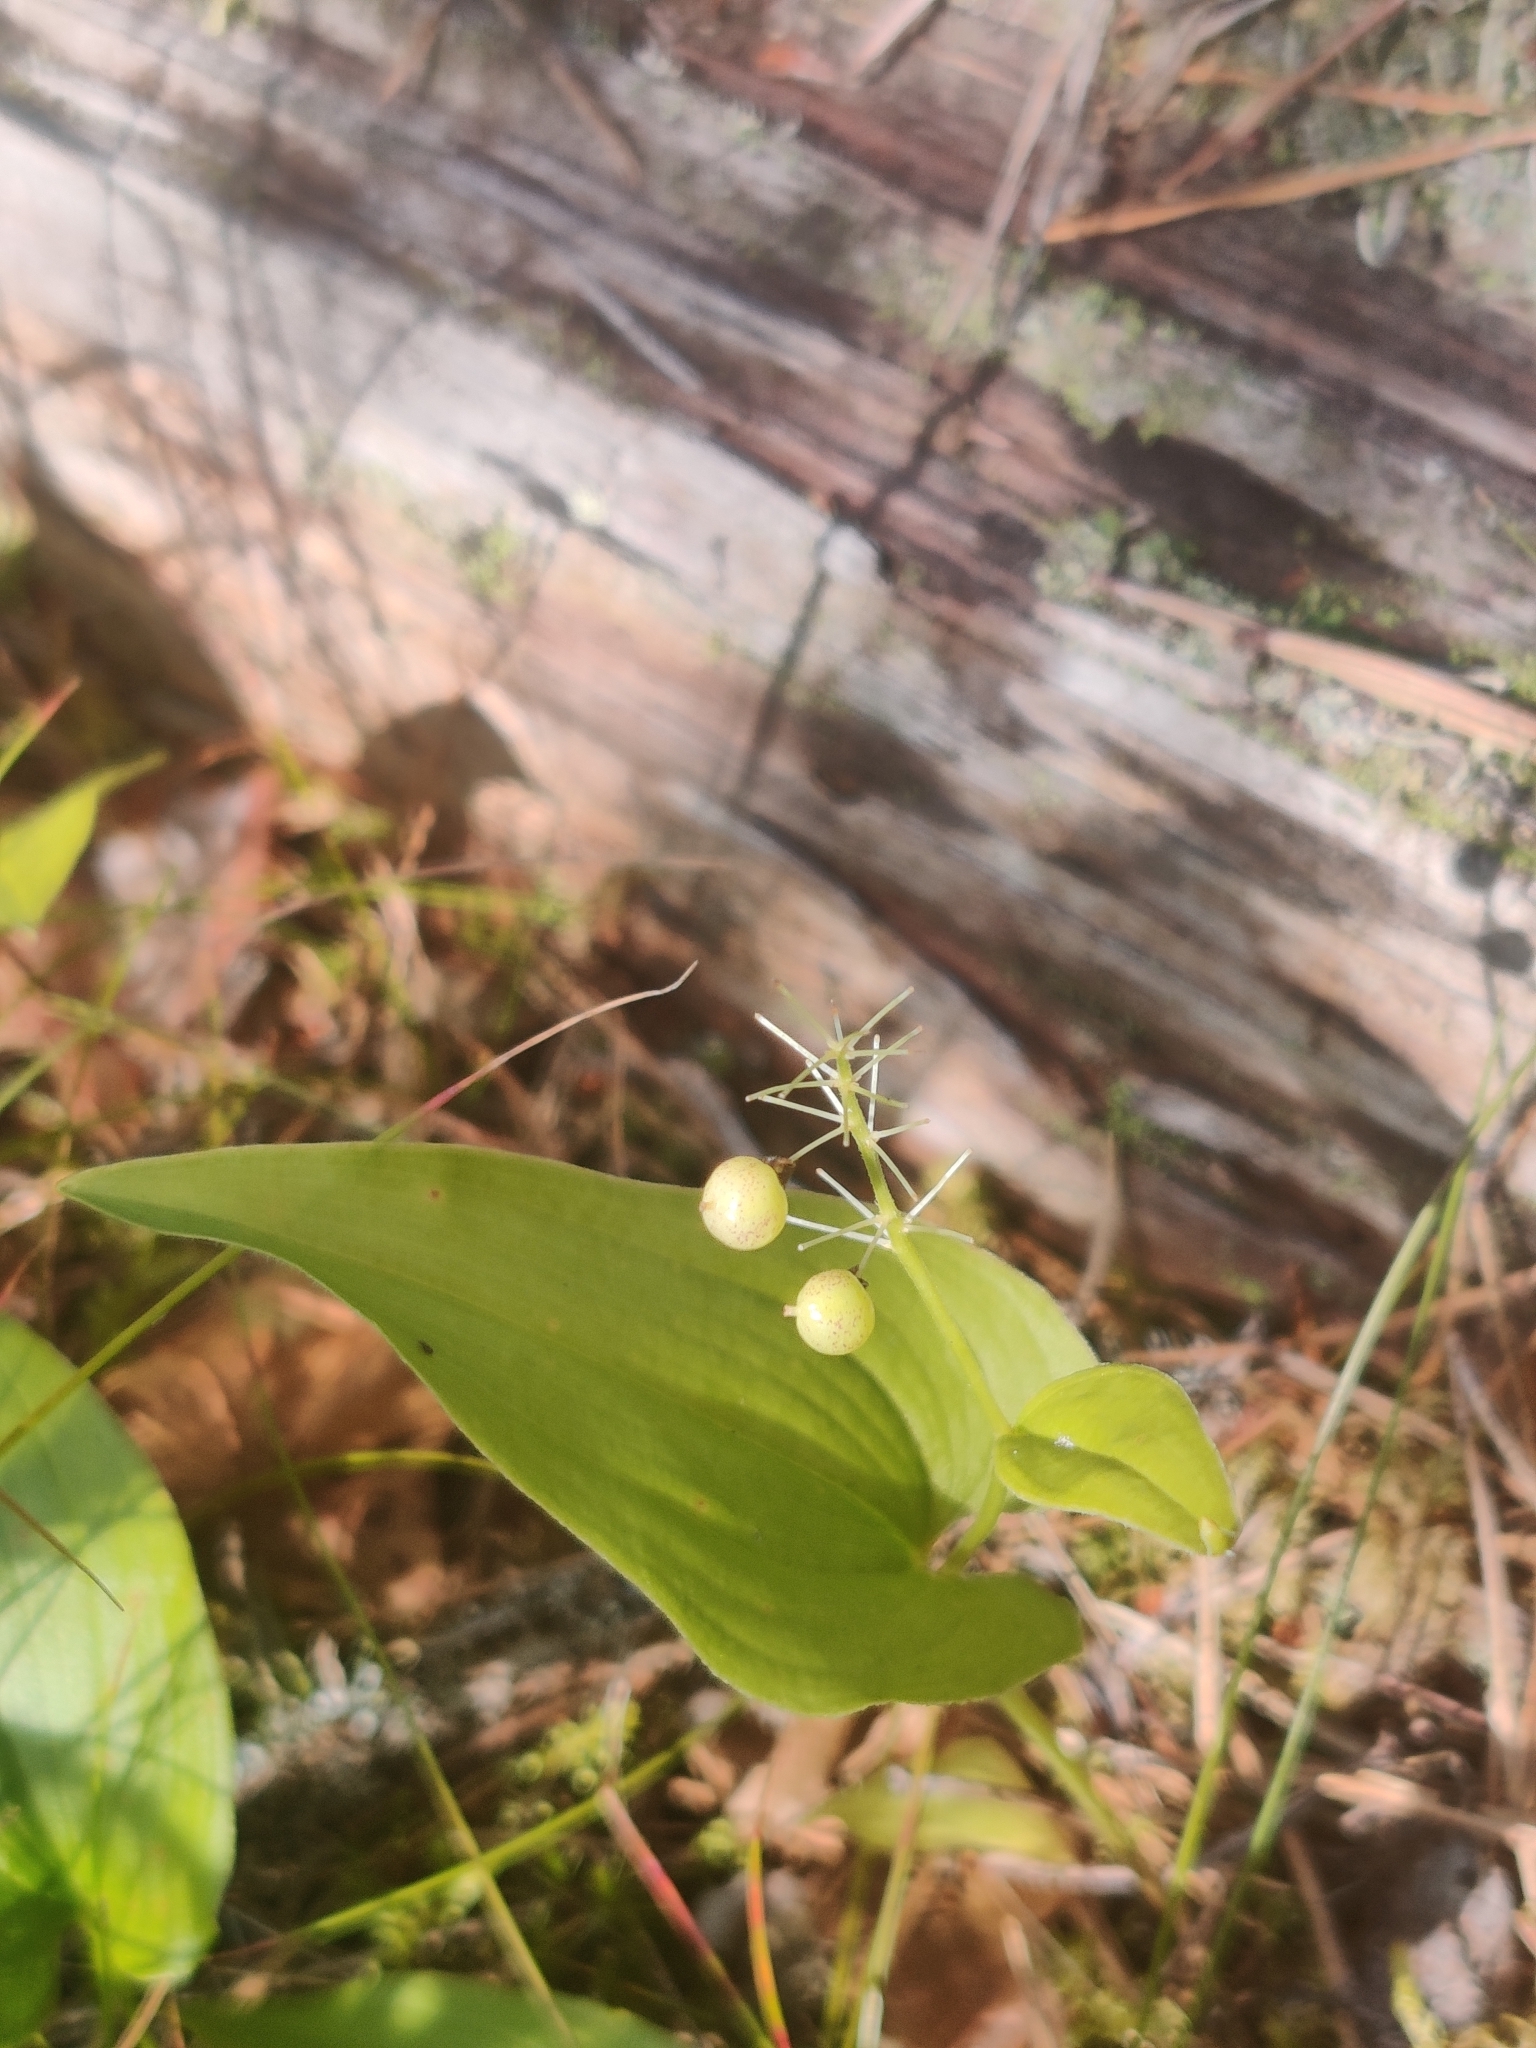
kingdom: Plantae
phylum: Tracheophyta
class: Liliopsida
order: Asparagales
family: Asparagaceae
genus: Maianthemum
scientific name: Maianthemum bifolium
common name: May lily
